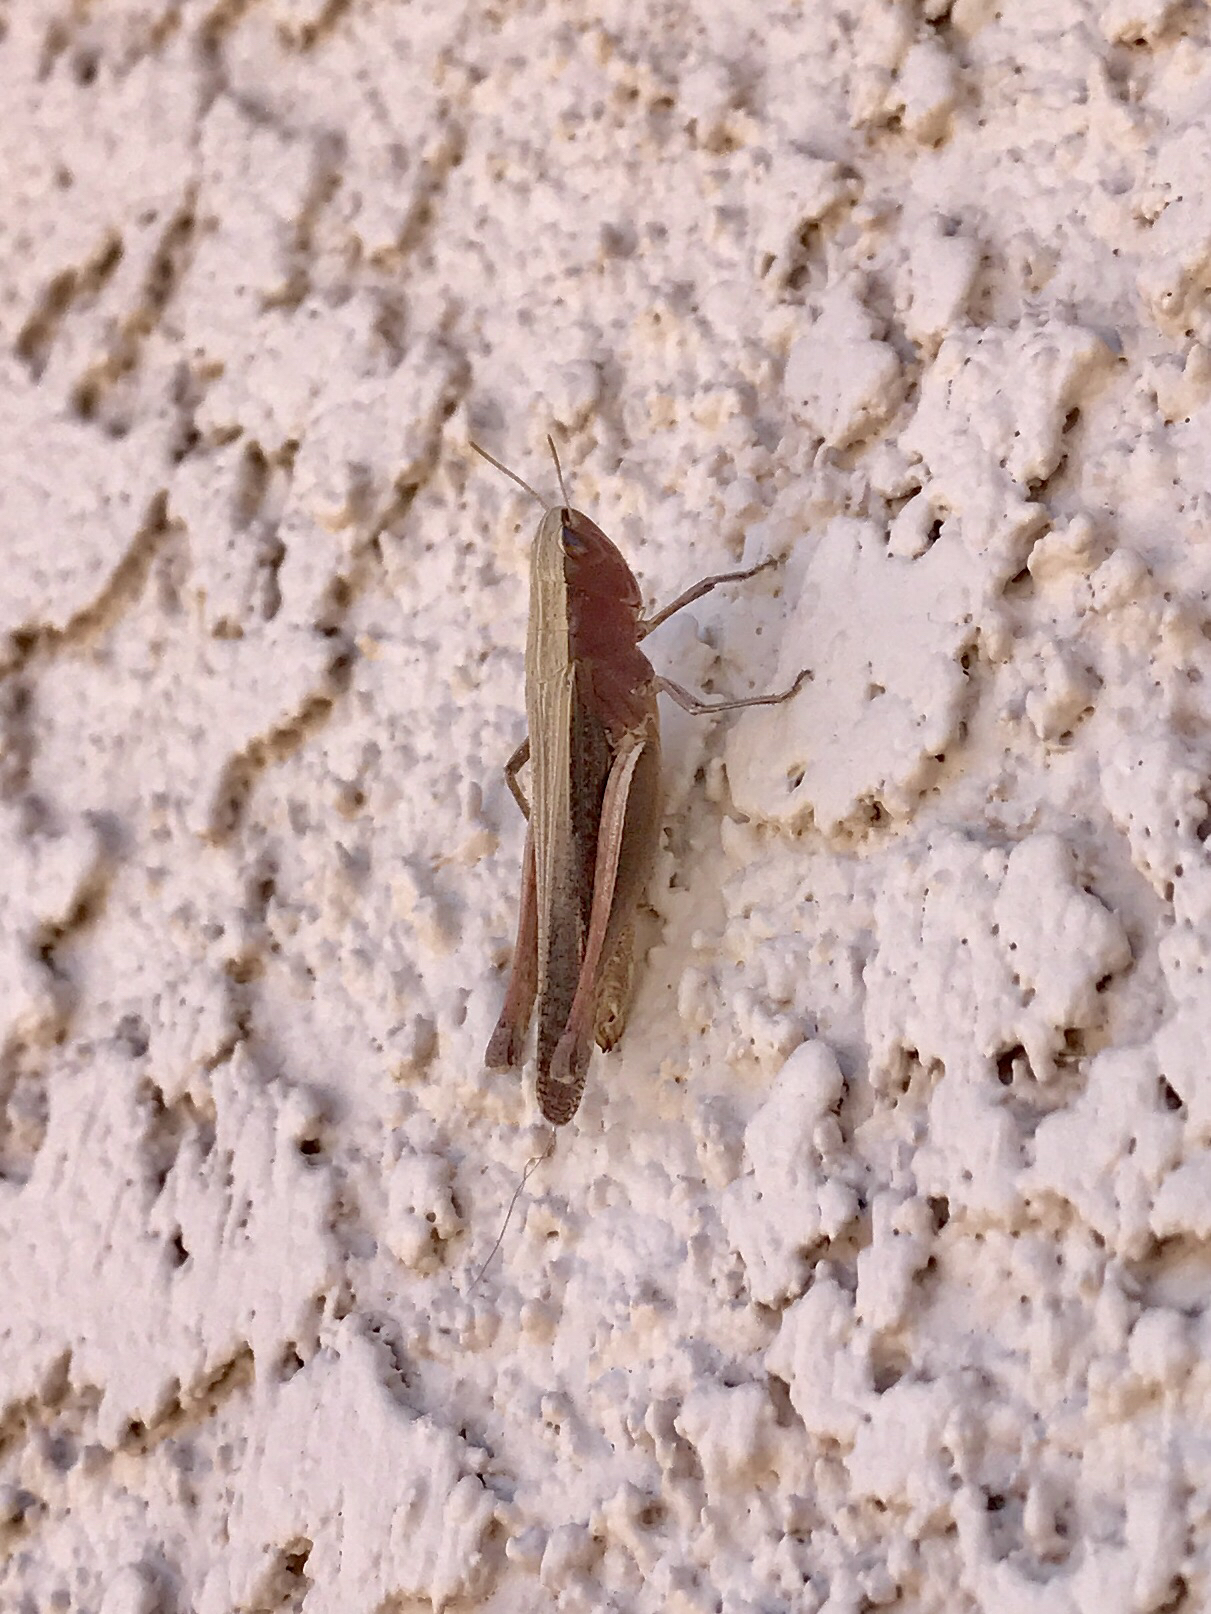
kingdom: Animalia
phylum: Arthropoda
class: Insecta
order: Orthoptera
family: Acrididae
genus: Amblytropidia
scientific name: Amblytropidia mysteca
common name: Brown winter grasshopper
